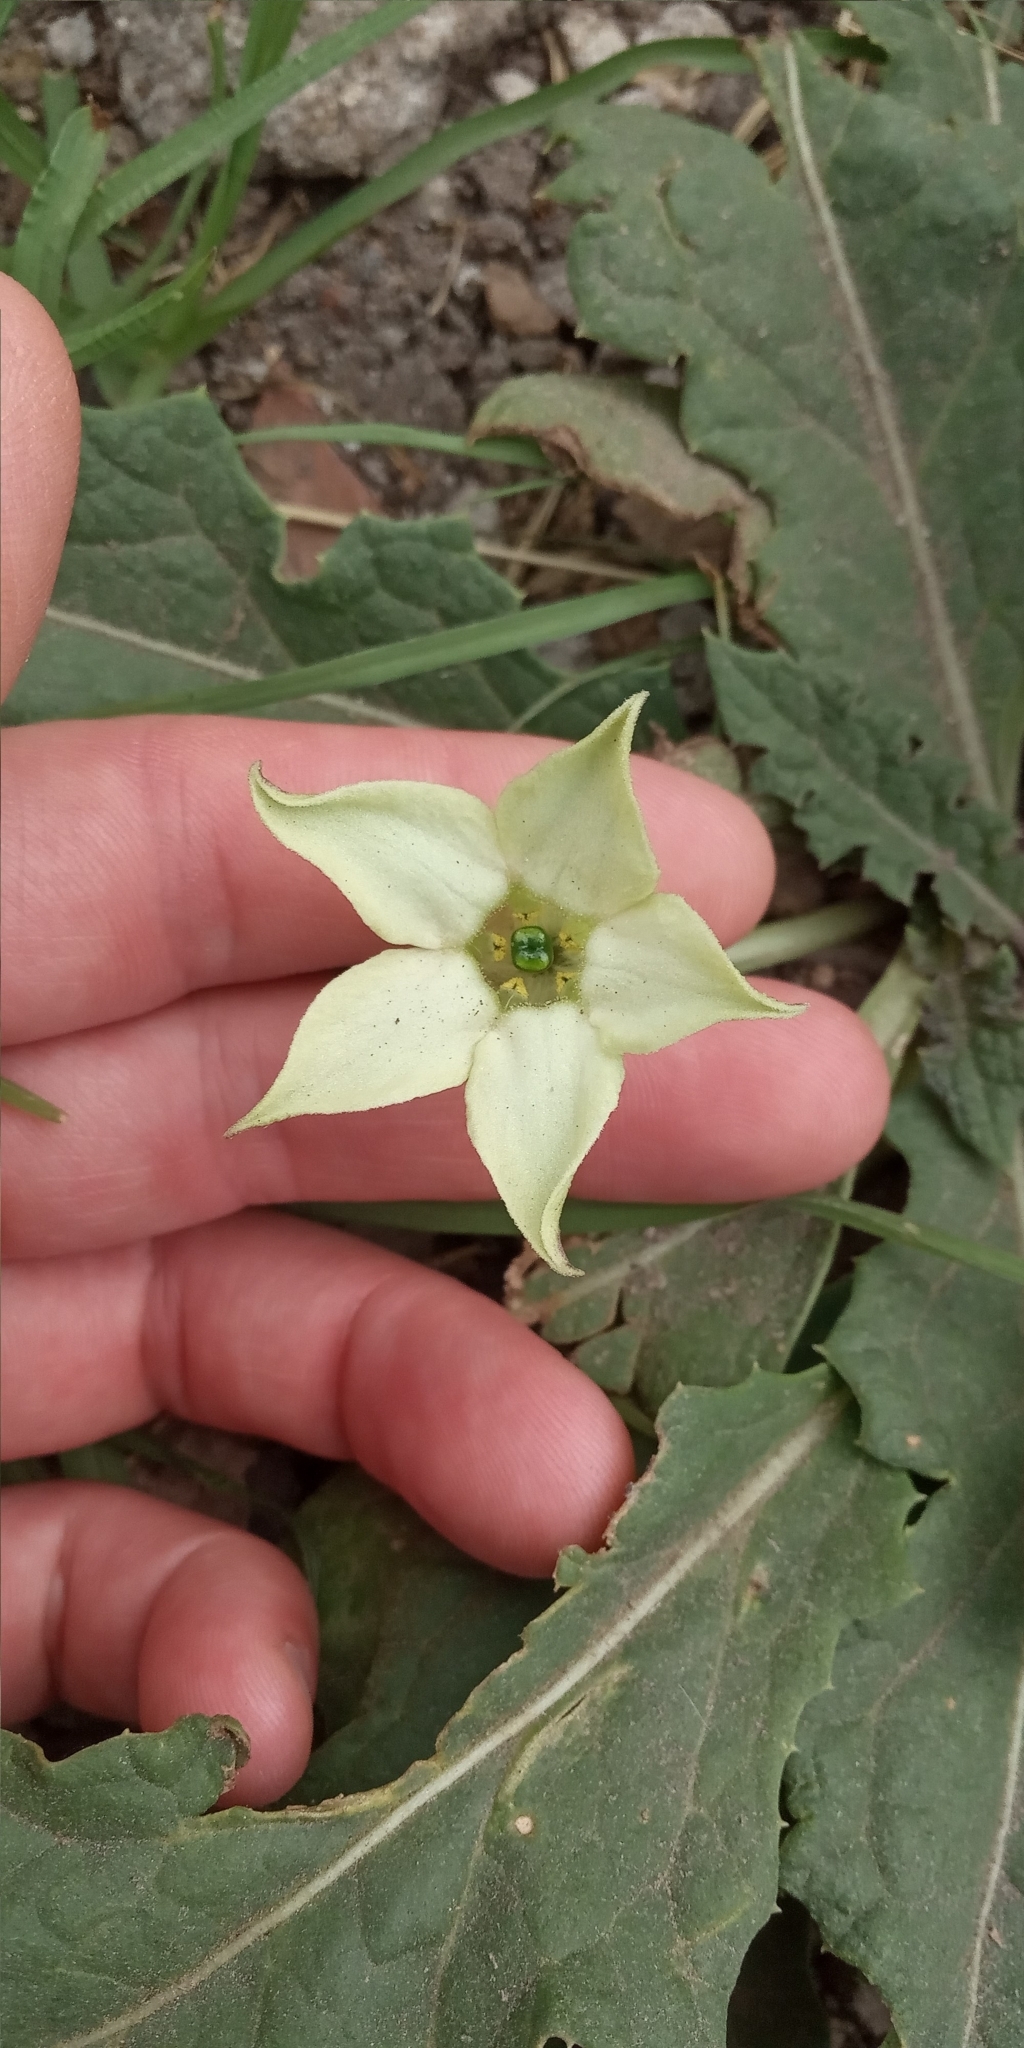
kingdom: Plantae
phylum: Tracheophyta
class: Magnoliopsida
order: Solanales
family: Solanaceae
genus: Jaborosa
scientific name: Jaborosa runcinata
